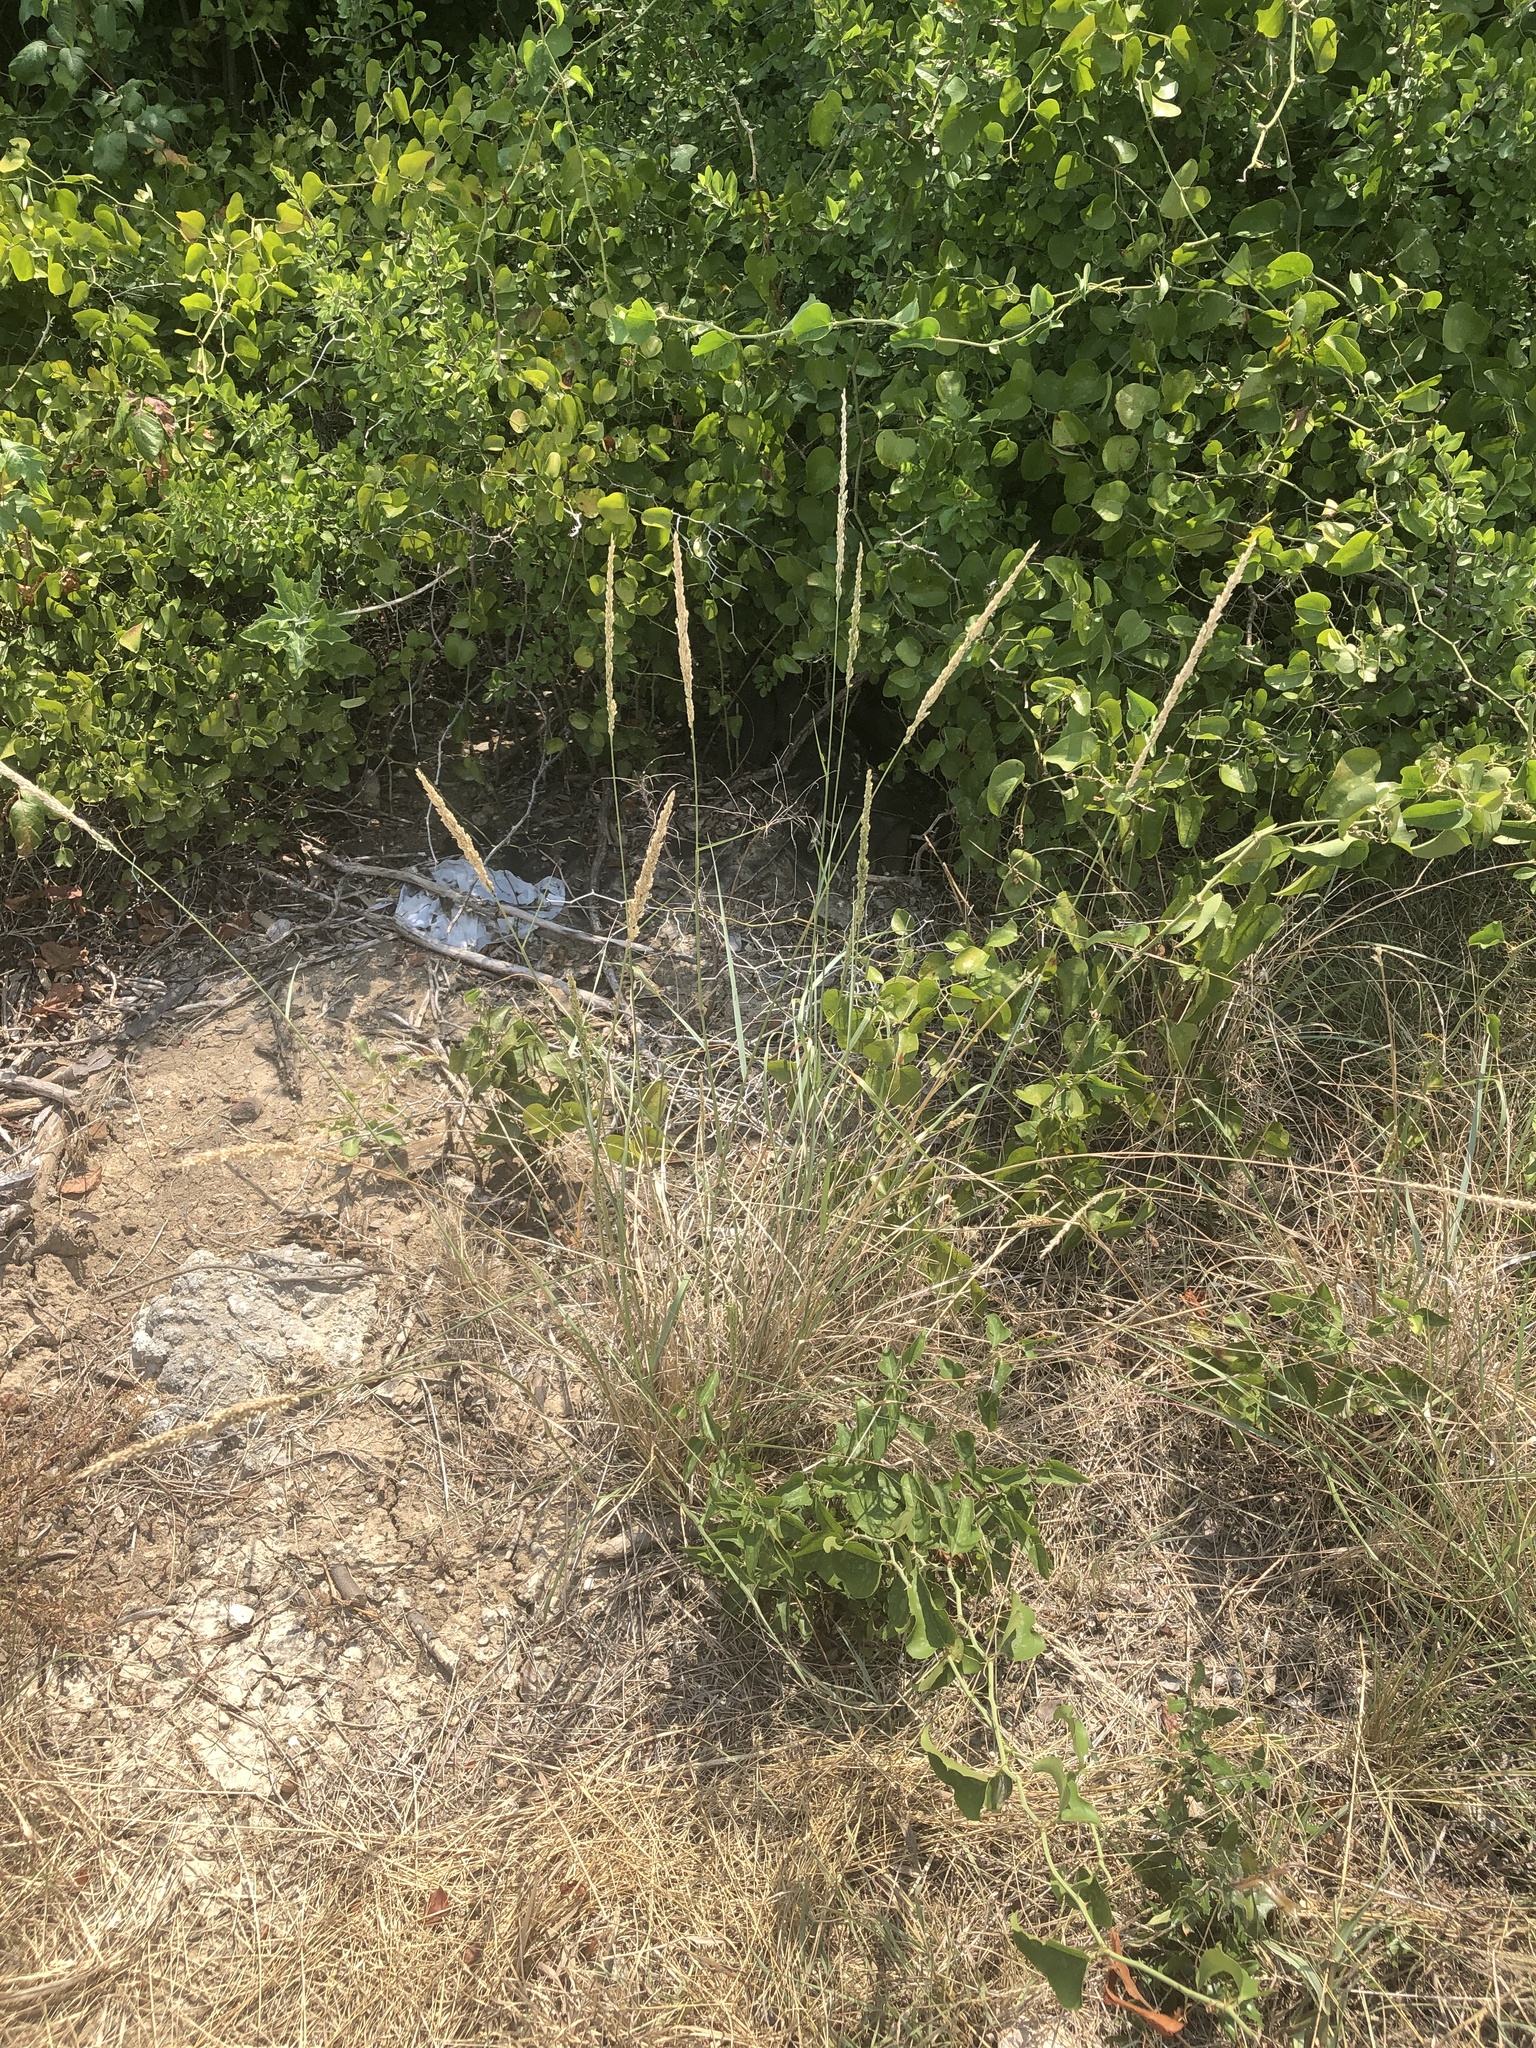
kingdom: Plantae
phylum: Tracheophyta
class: Liliopsida
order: Poales
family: Poaceae
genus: Tridens
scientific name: Tridens albescens
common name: White tridens
